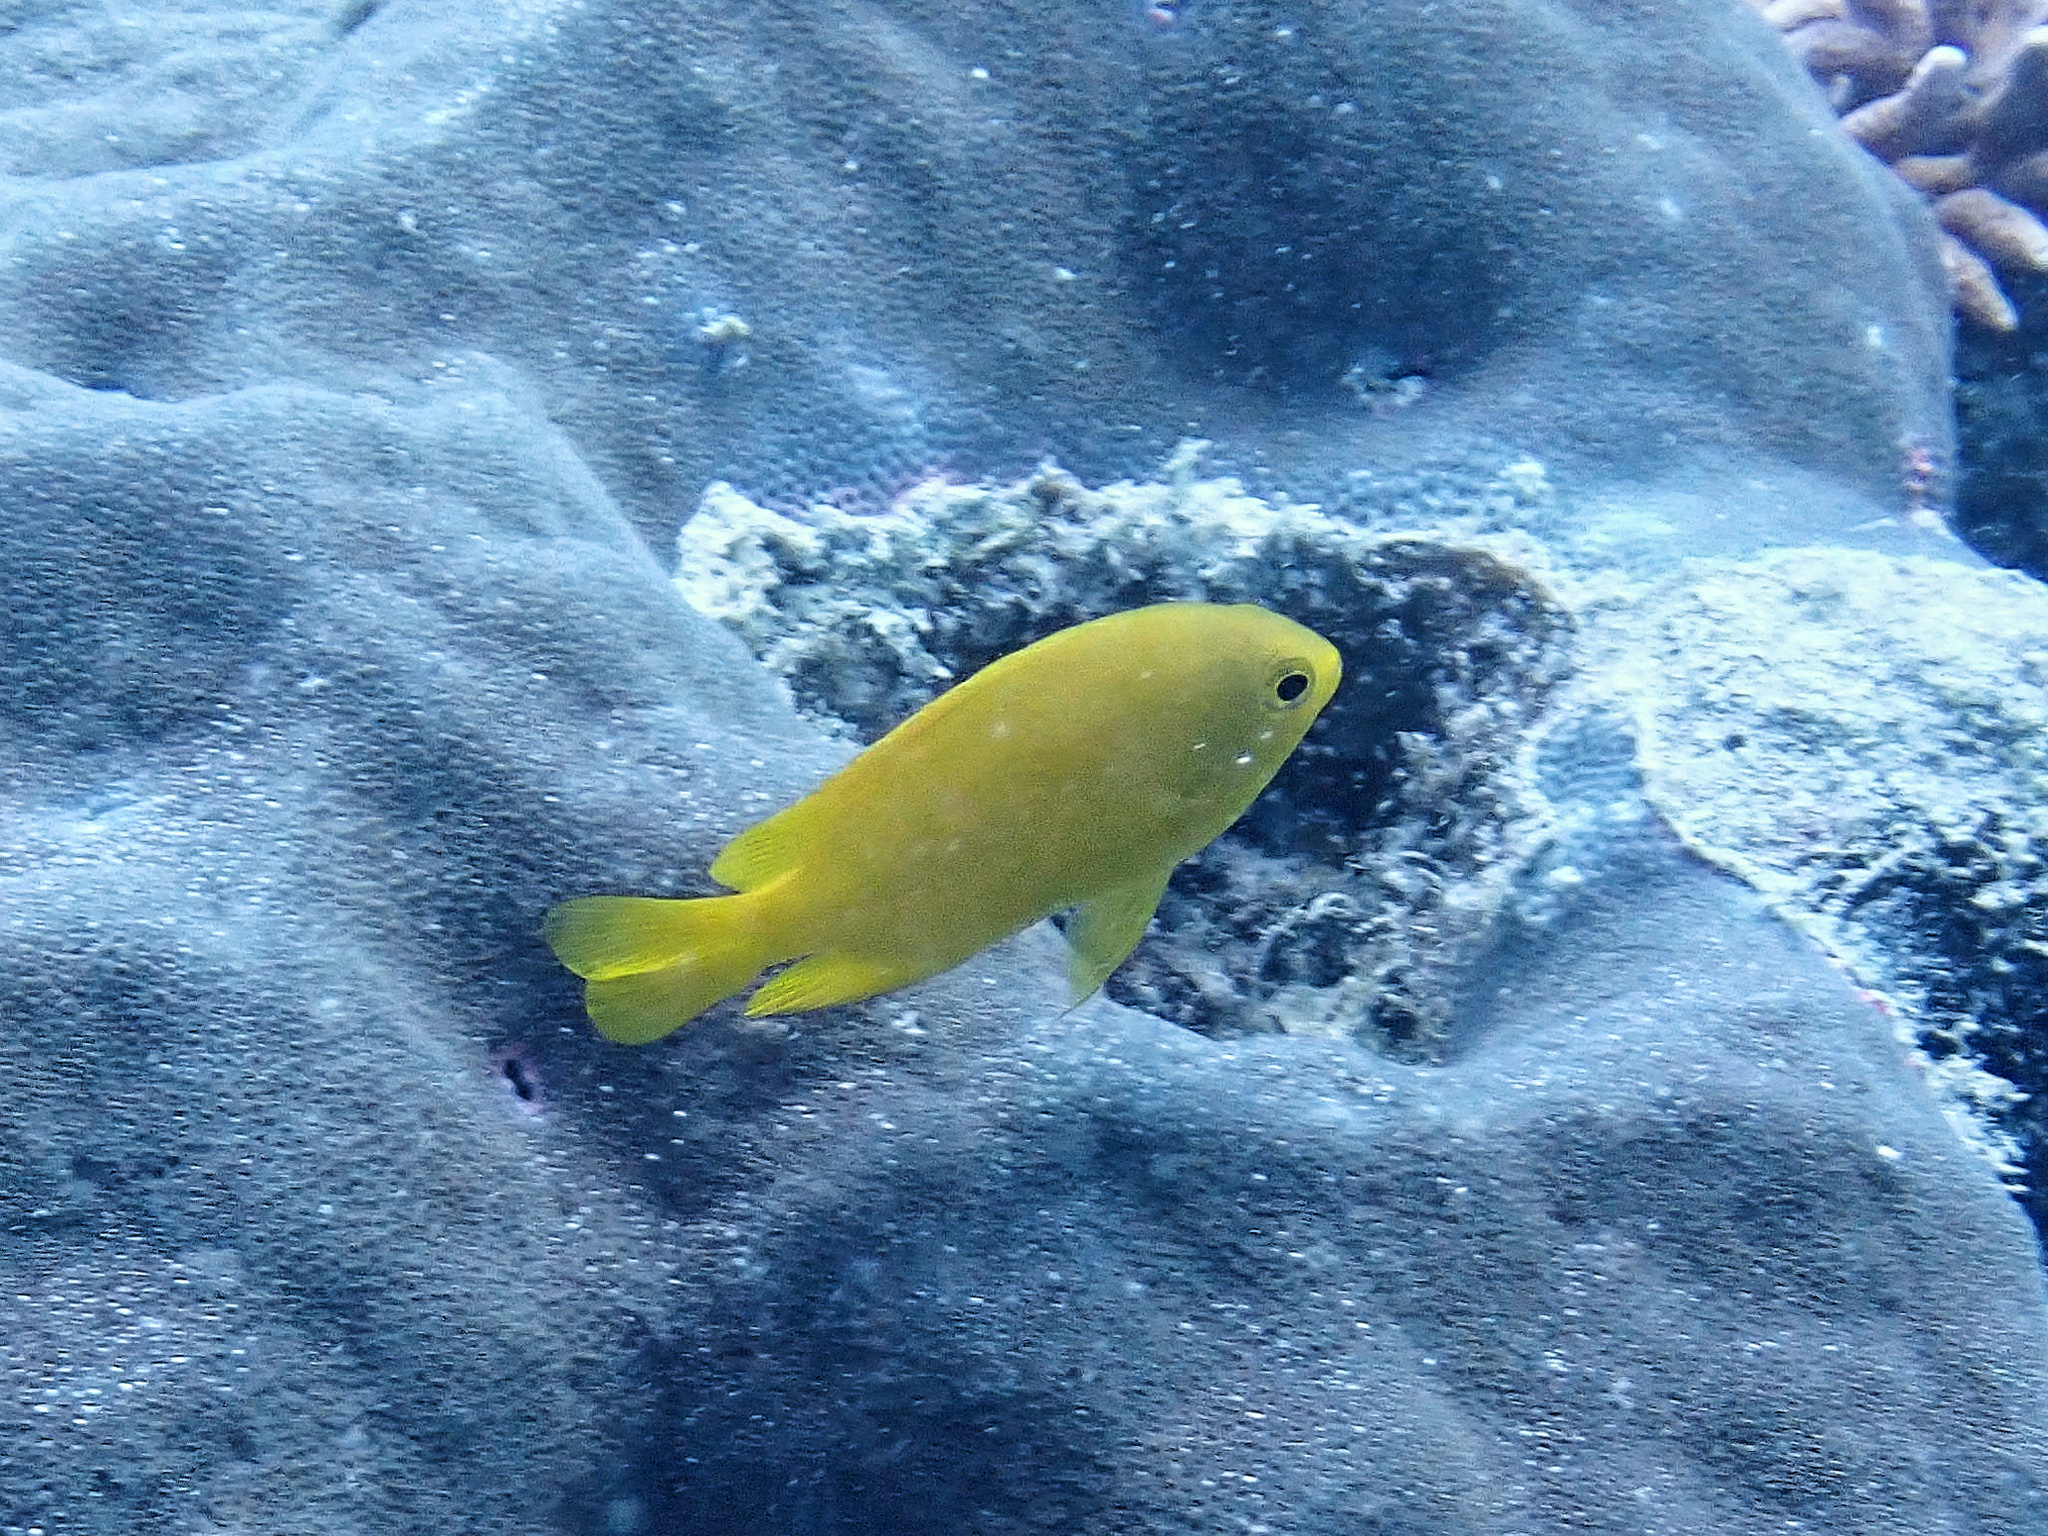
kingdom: Animalia
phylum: Chordata
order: Perciformes
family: Pomacentridae
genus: Pomacentrus
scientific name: Pomacentrus moluccensis
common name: Lemon damsel
